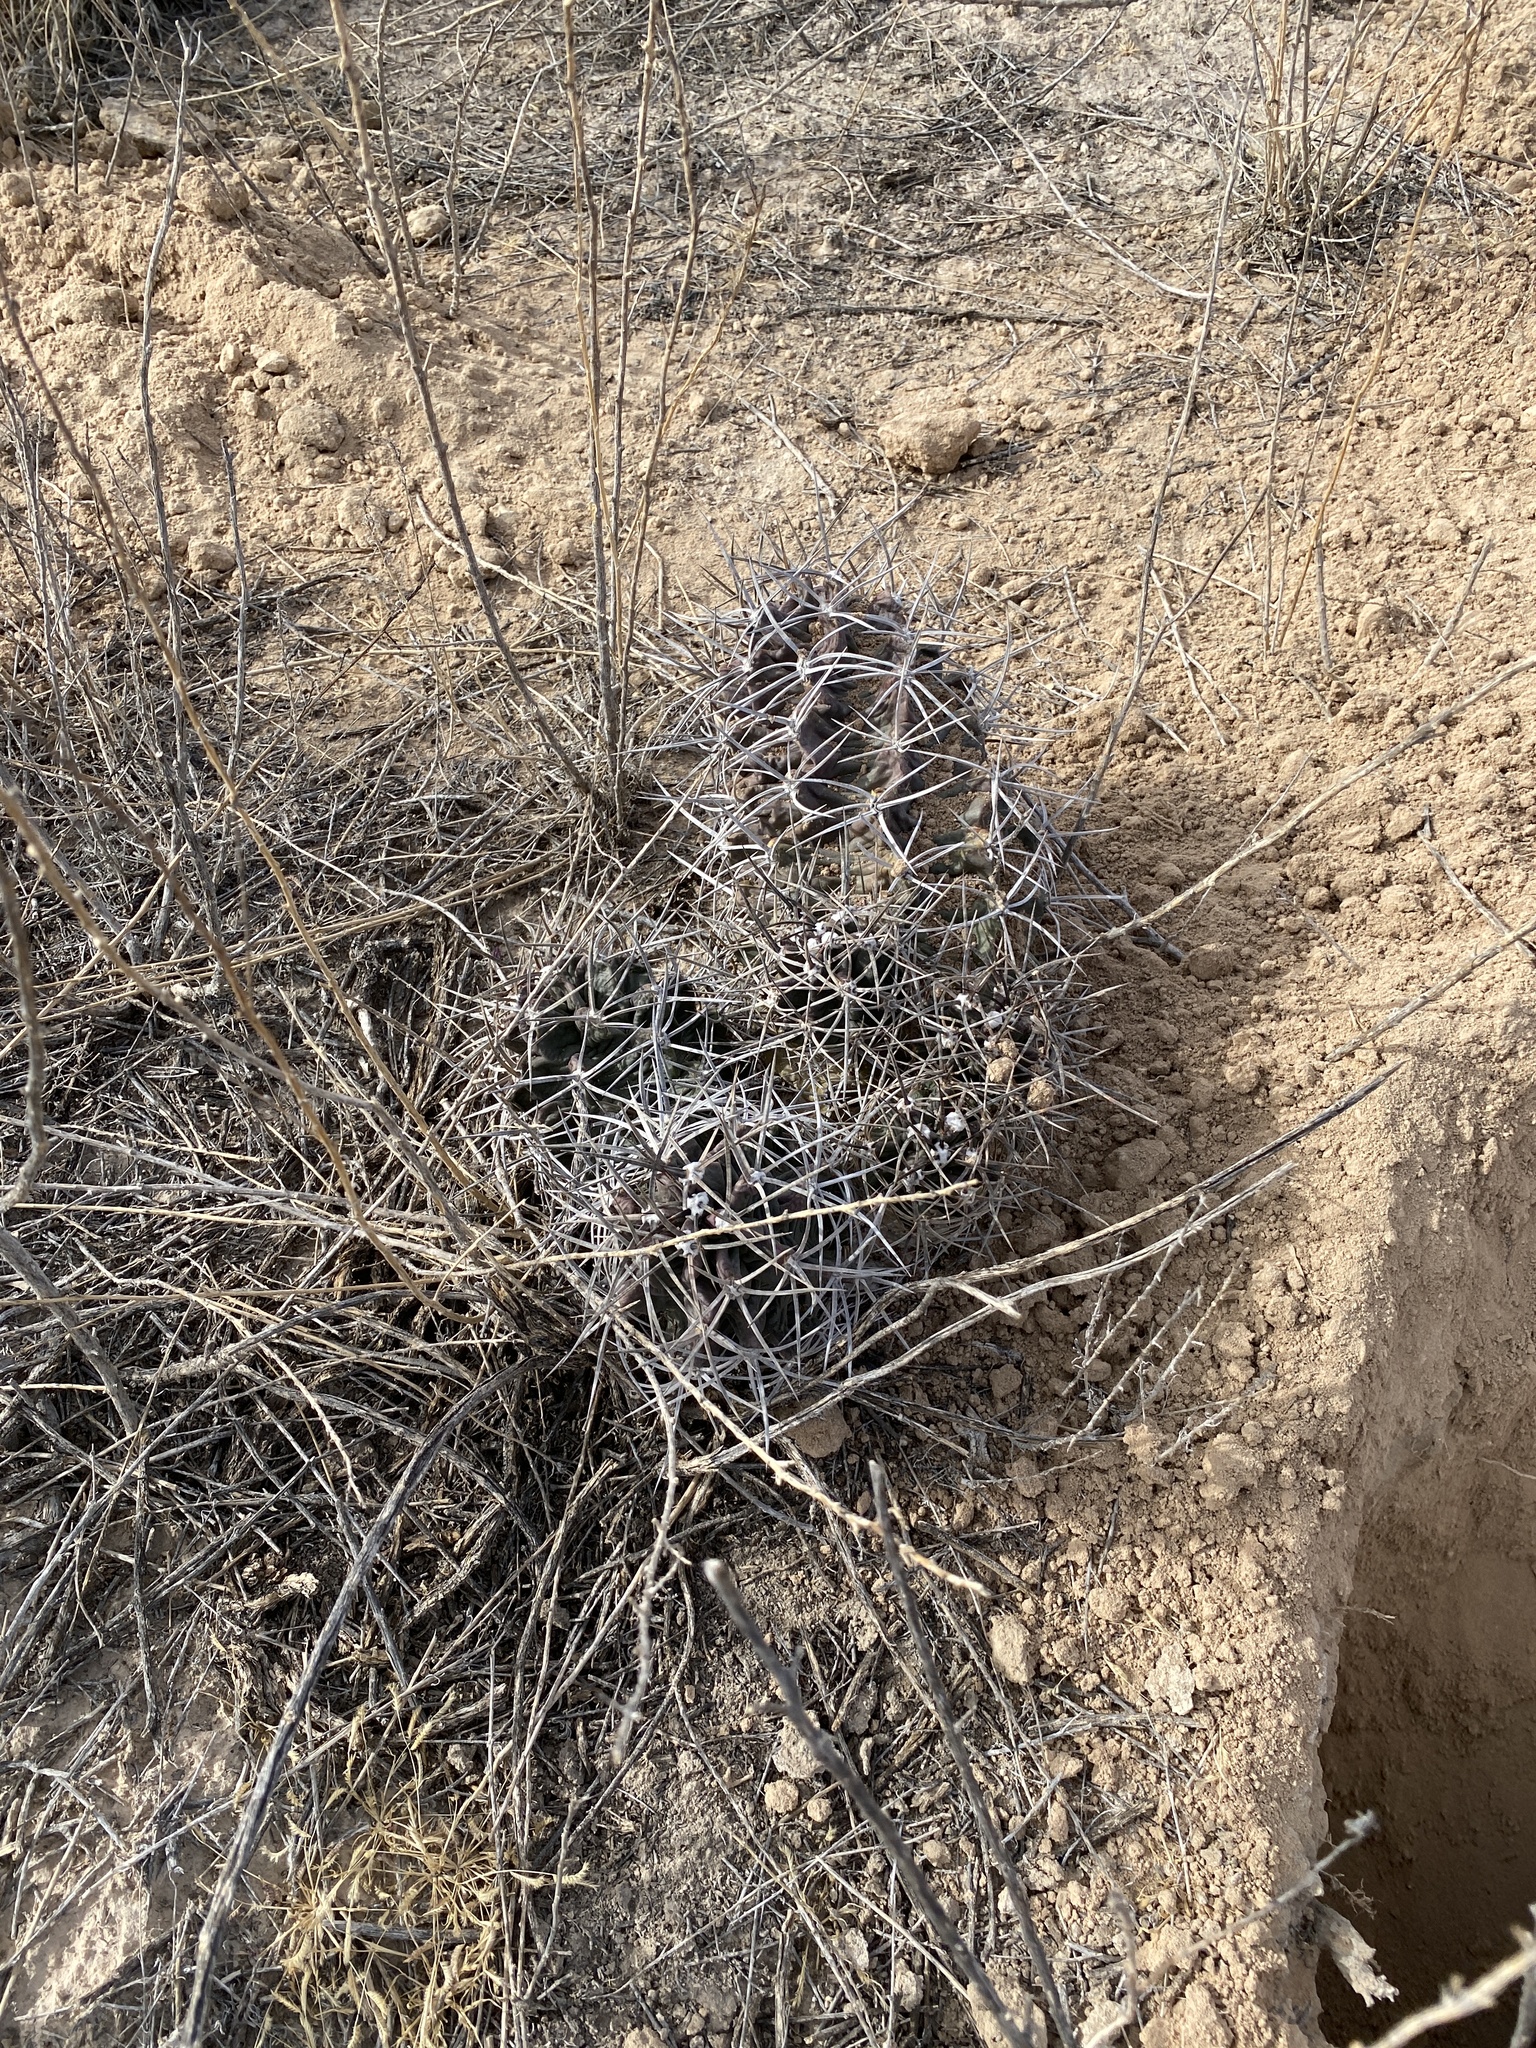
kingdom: Plantae
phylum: Tracheophyta
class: Magnoliopsida
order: Caryophyllales
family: Cactaceae
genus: Echinocereus
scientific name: Echinocereus triglochidiatus
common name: Claretcup hedgehog
